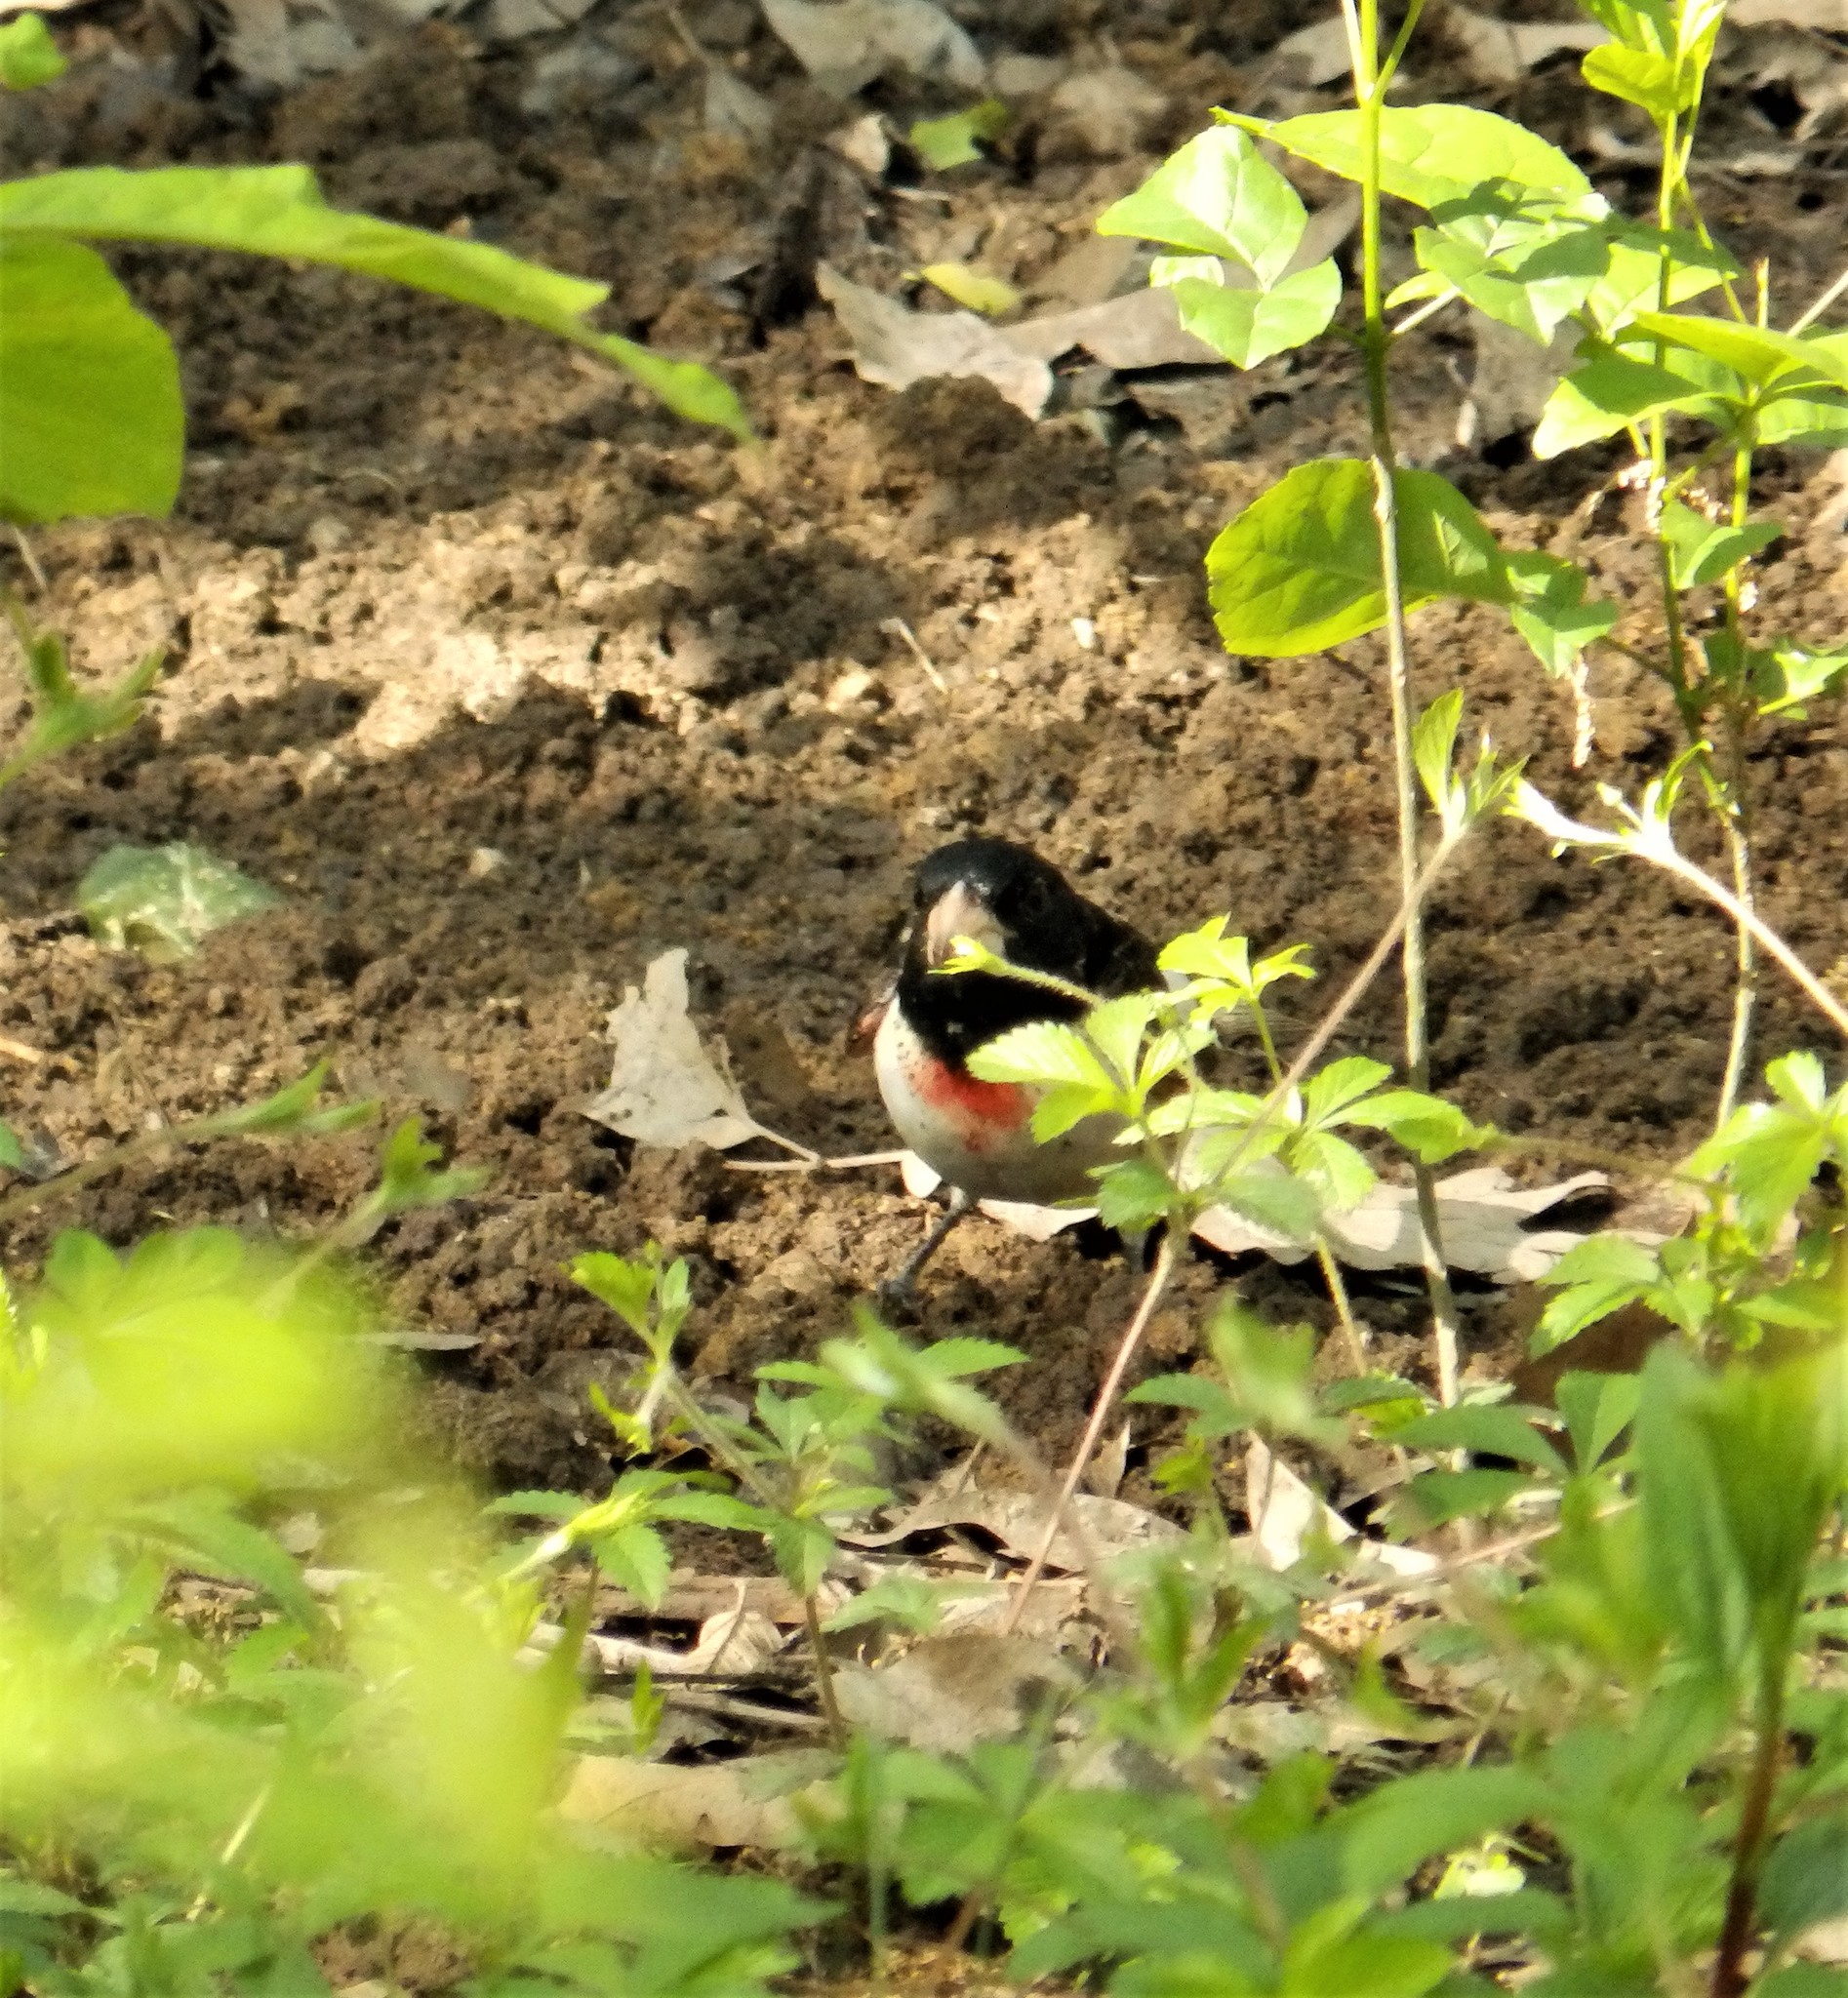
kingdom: Animalia
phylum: Chordata
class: Aves
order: Passeriformes
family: Cardinalidae
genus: Pheucticus
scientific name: Pheucticus ludovicianus
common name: Rose-breasted grosbeak
